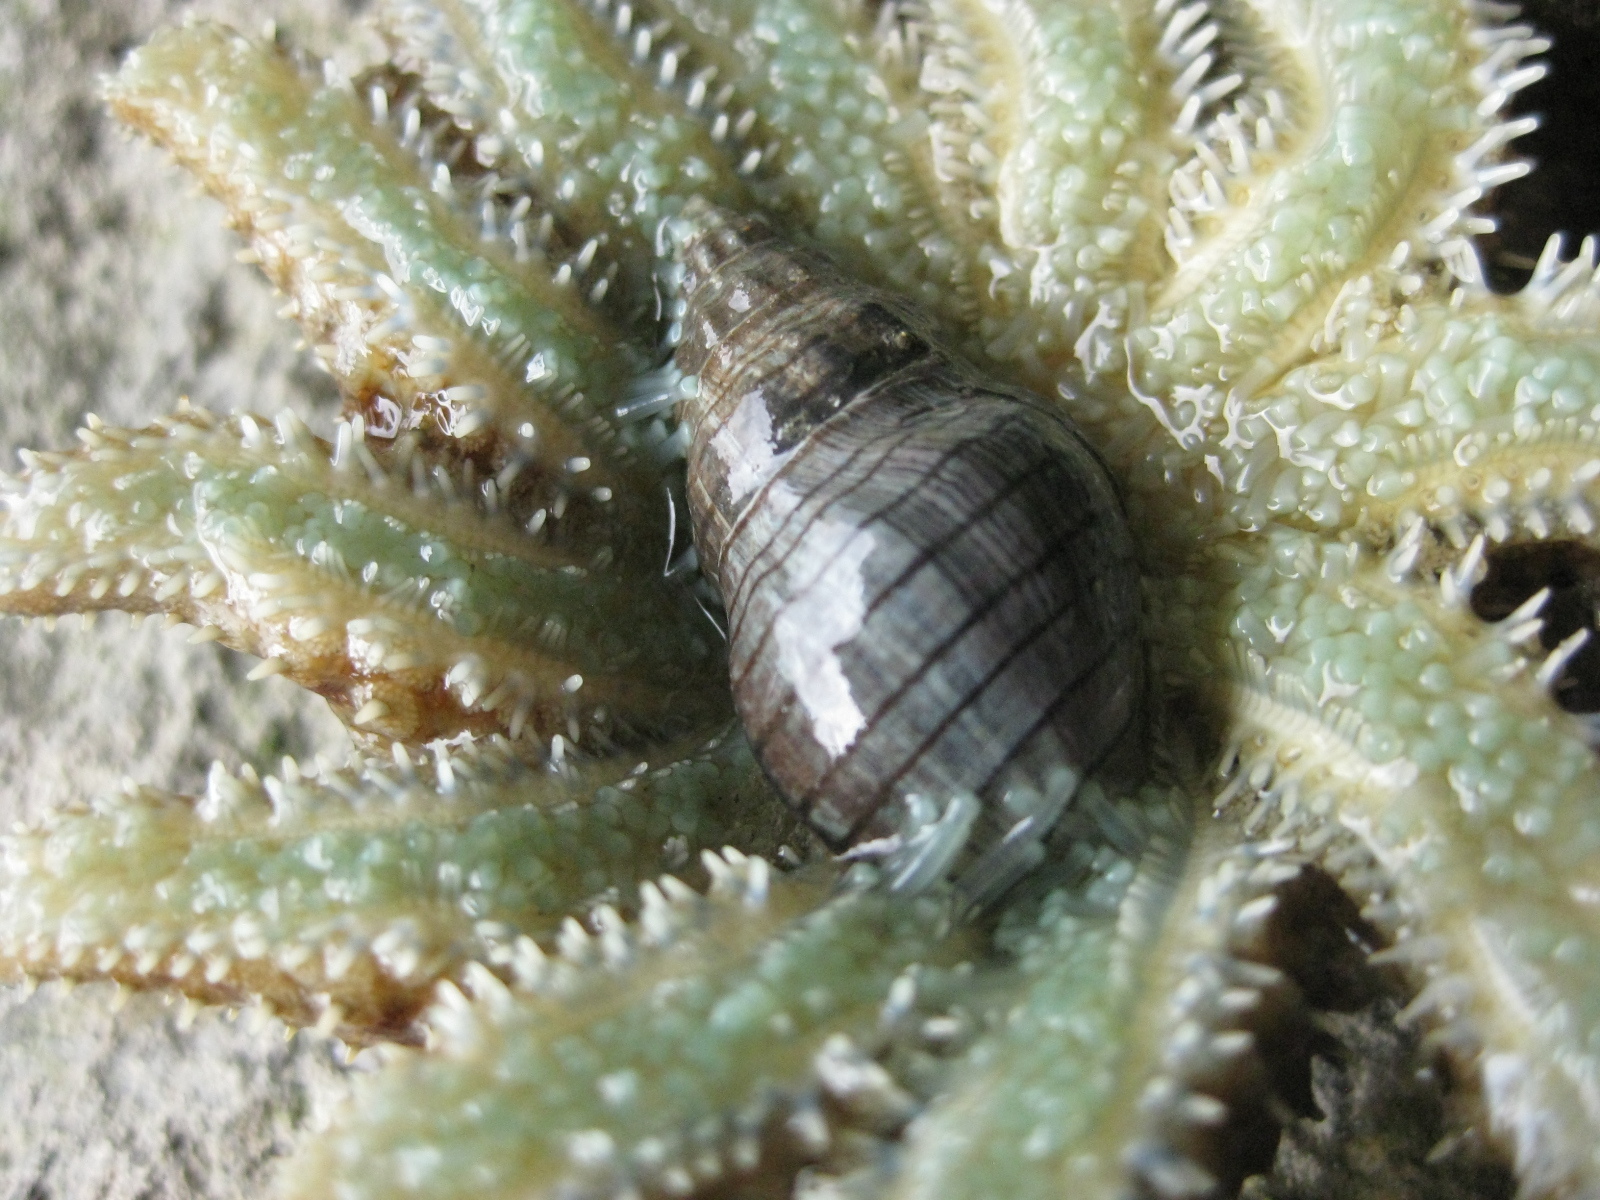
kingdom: Animalia
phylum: Mollusca
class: Gastropoda
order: Neogastropoda
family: Cominellidae
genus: Cominella
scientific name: Cominella virgata
